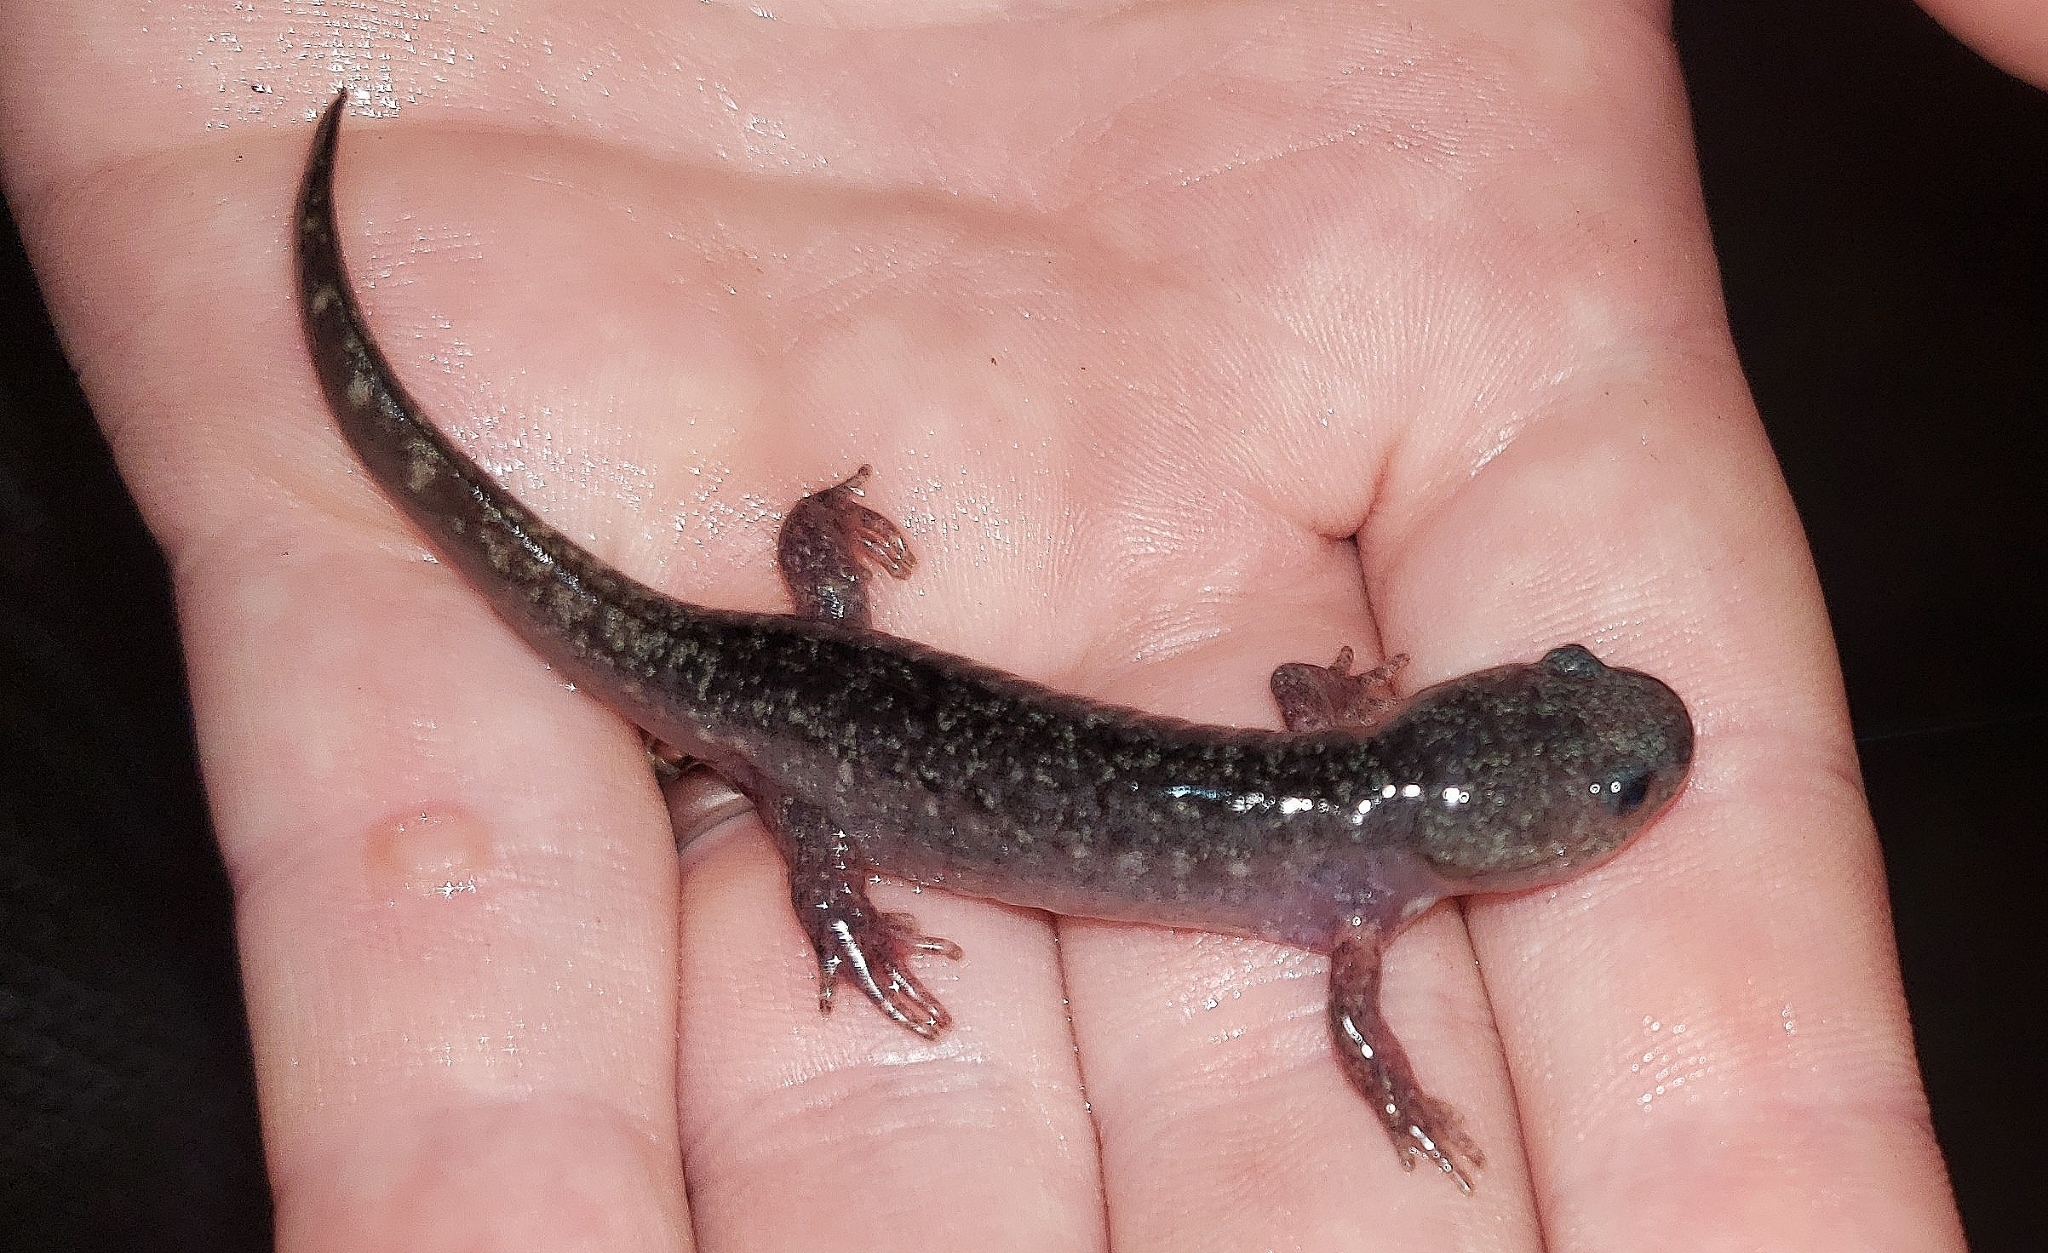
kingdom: Animalia
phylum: Chordata
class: Amphibia
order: Caudata
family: Ambystomatidae
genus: Ambystoma
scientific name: Ambystoma opacum
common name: Marbled salamander
